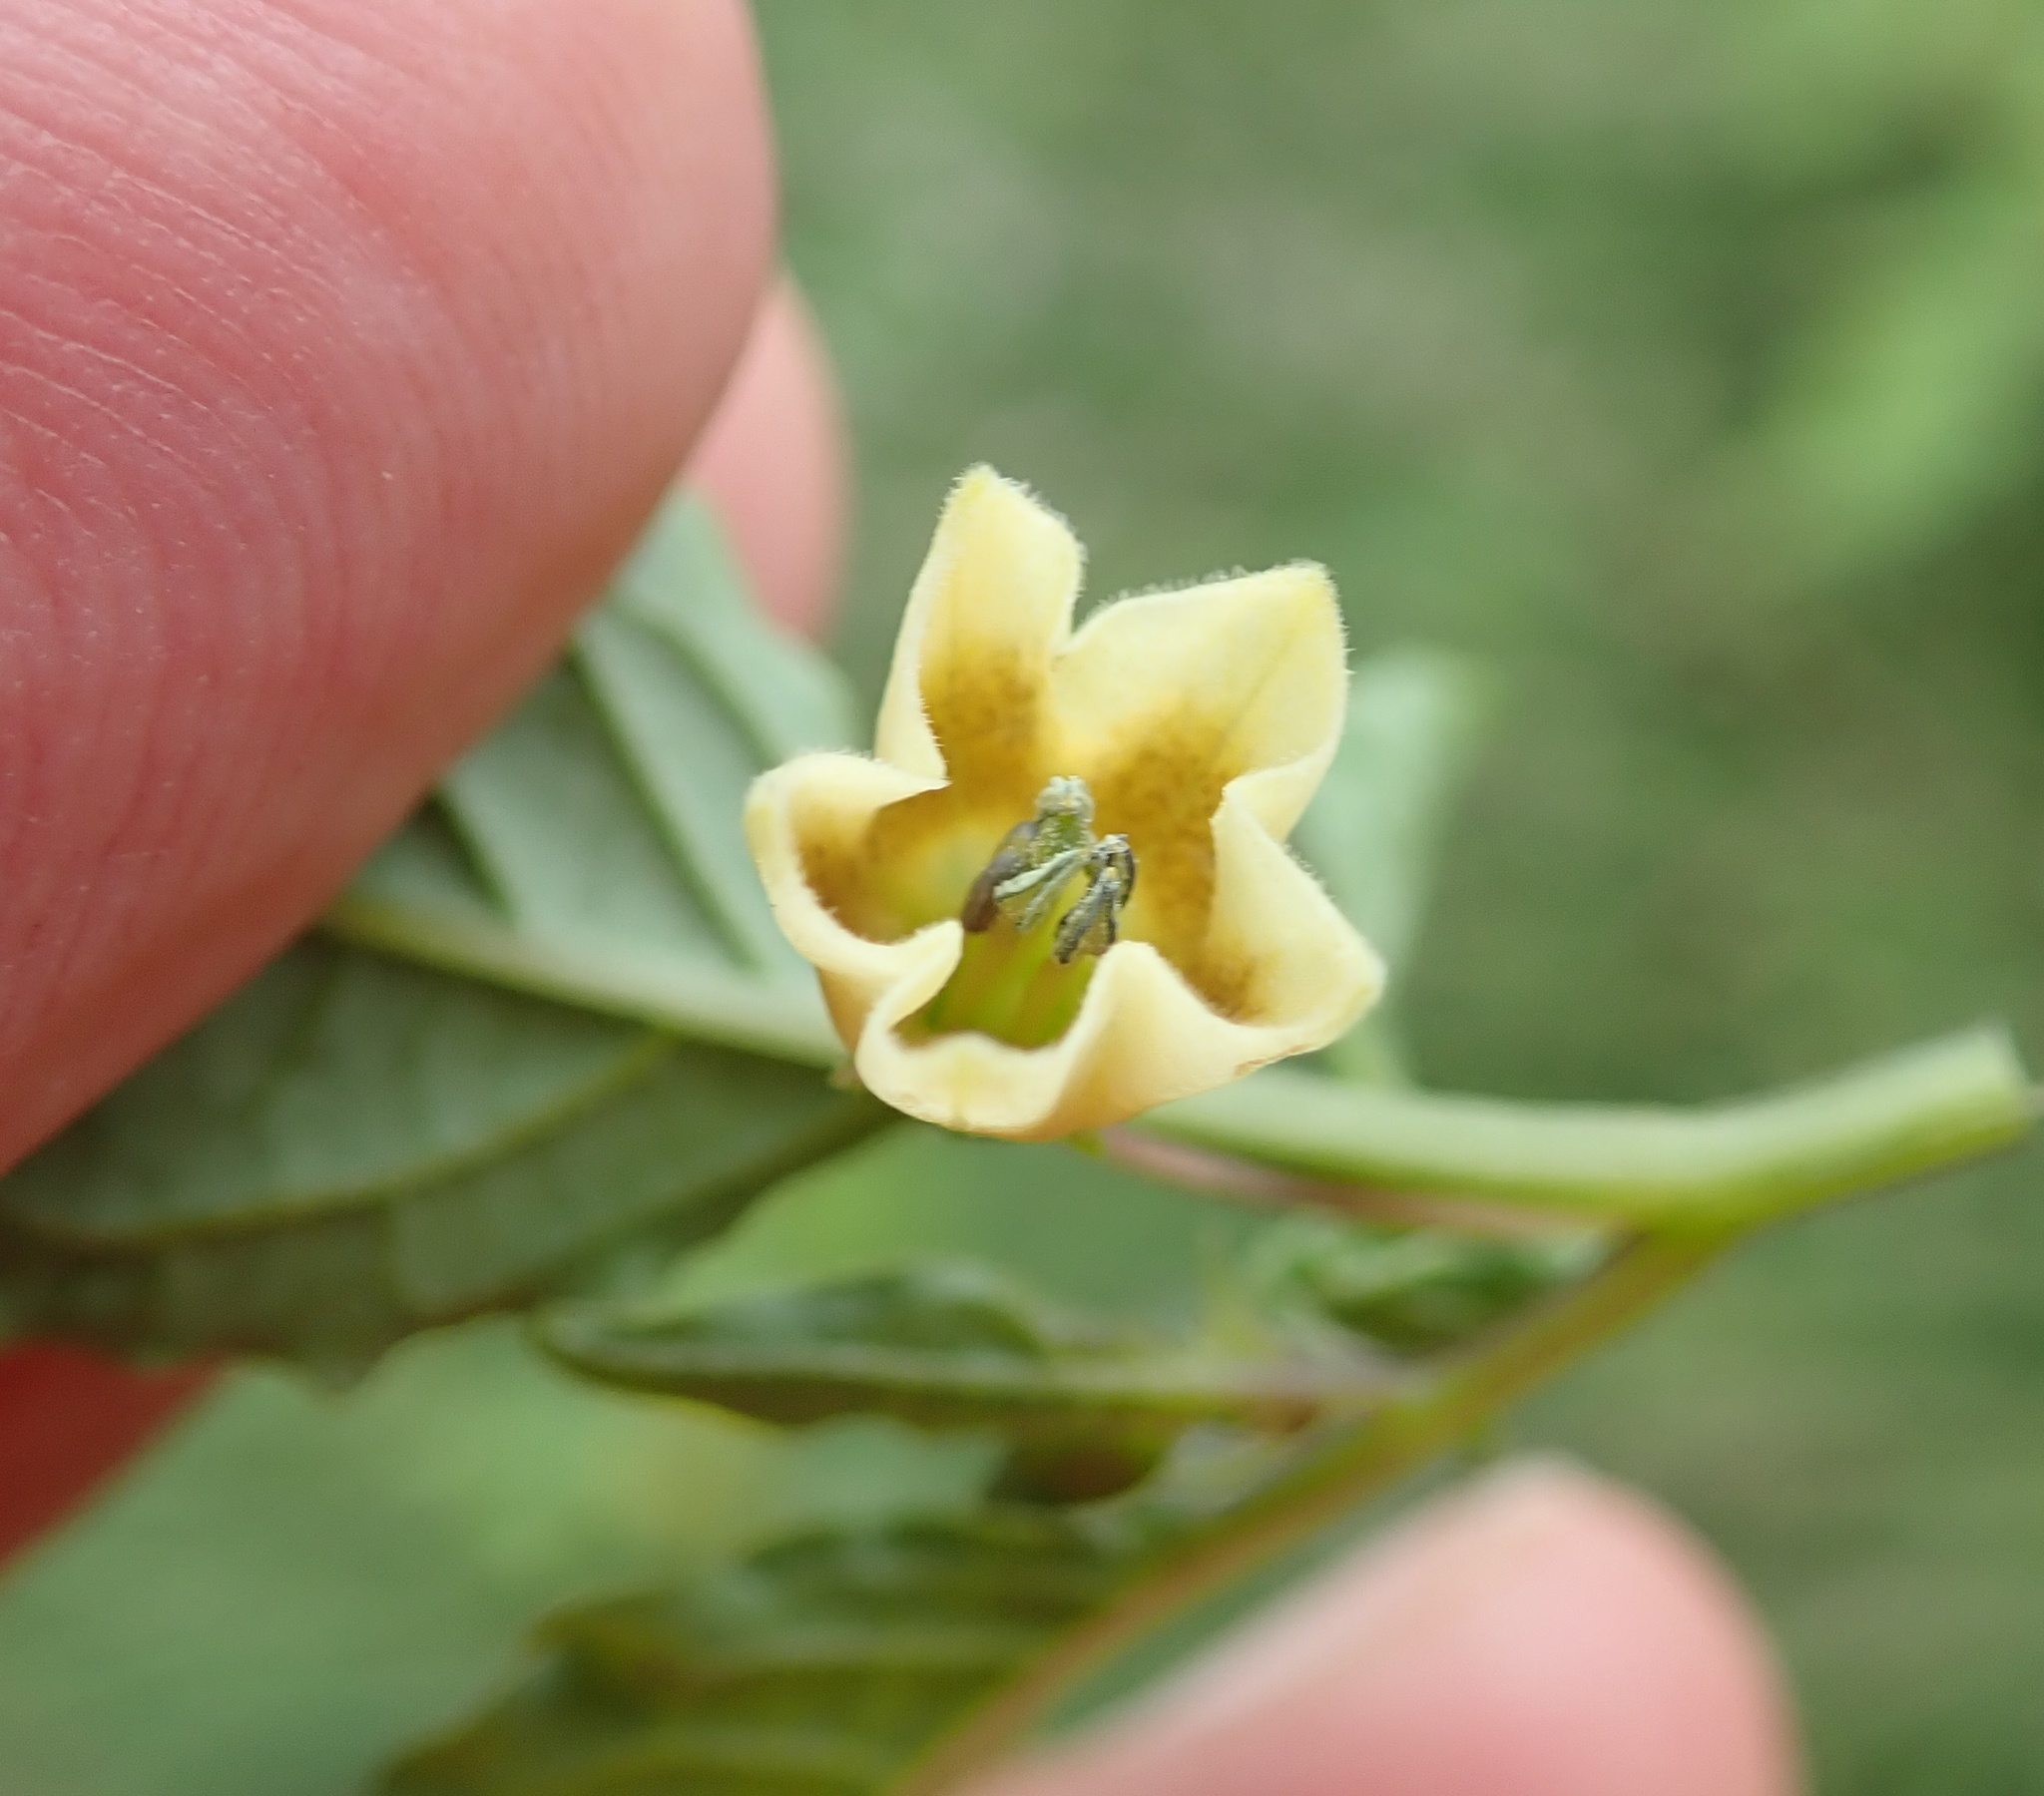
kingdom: Plantae
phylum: Tracheophyta
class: Magnoliopsida
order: Solanales
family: Solanaceae
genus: Physalis
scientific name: Physalis angulata
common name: Angular winter-cherry
